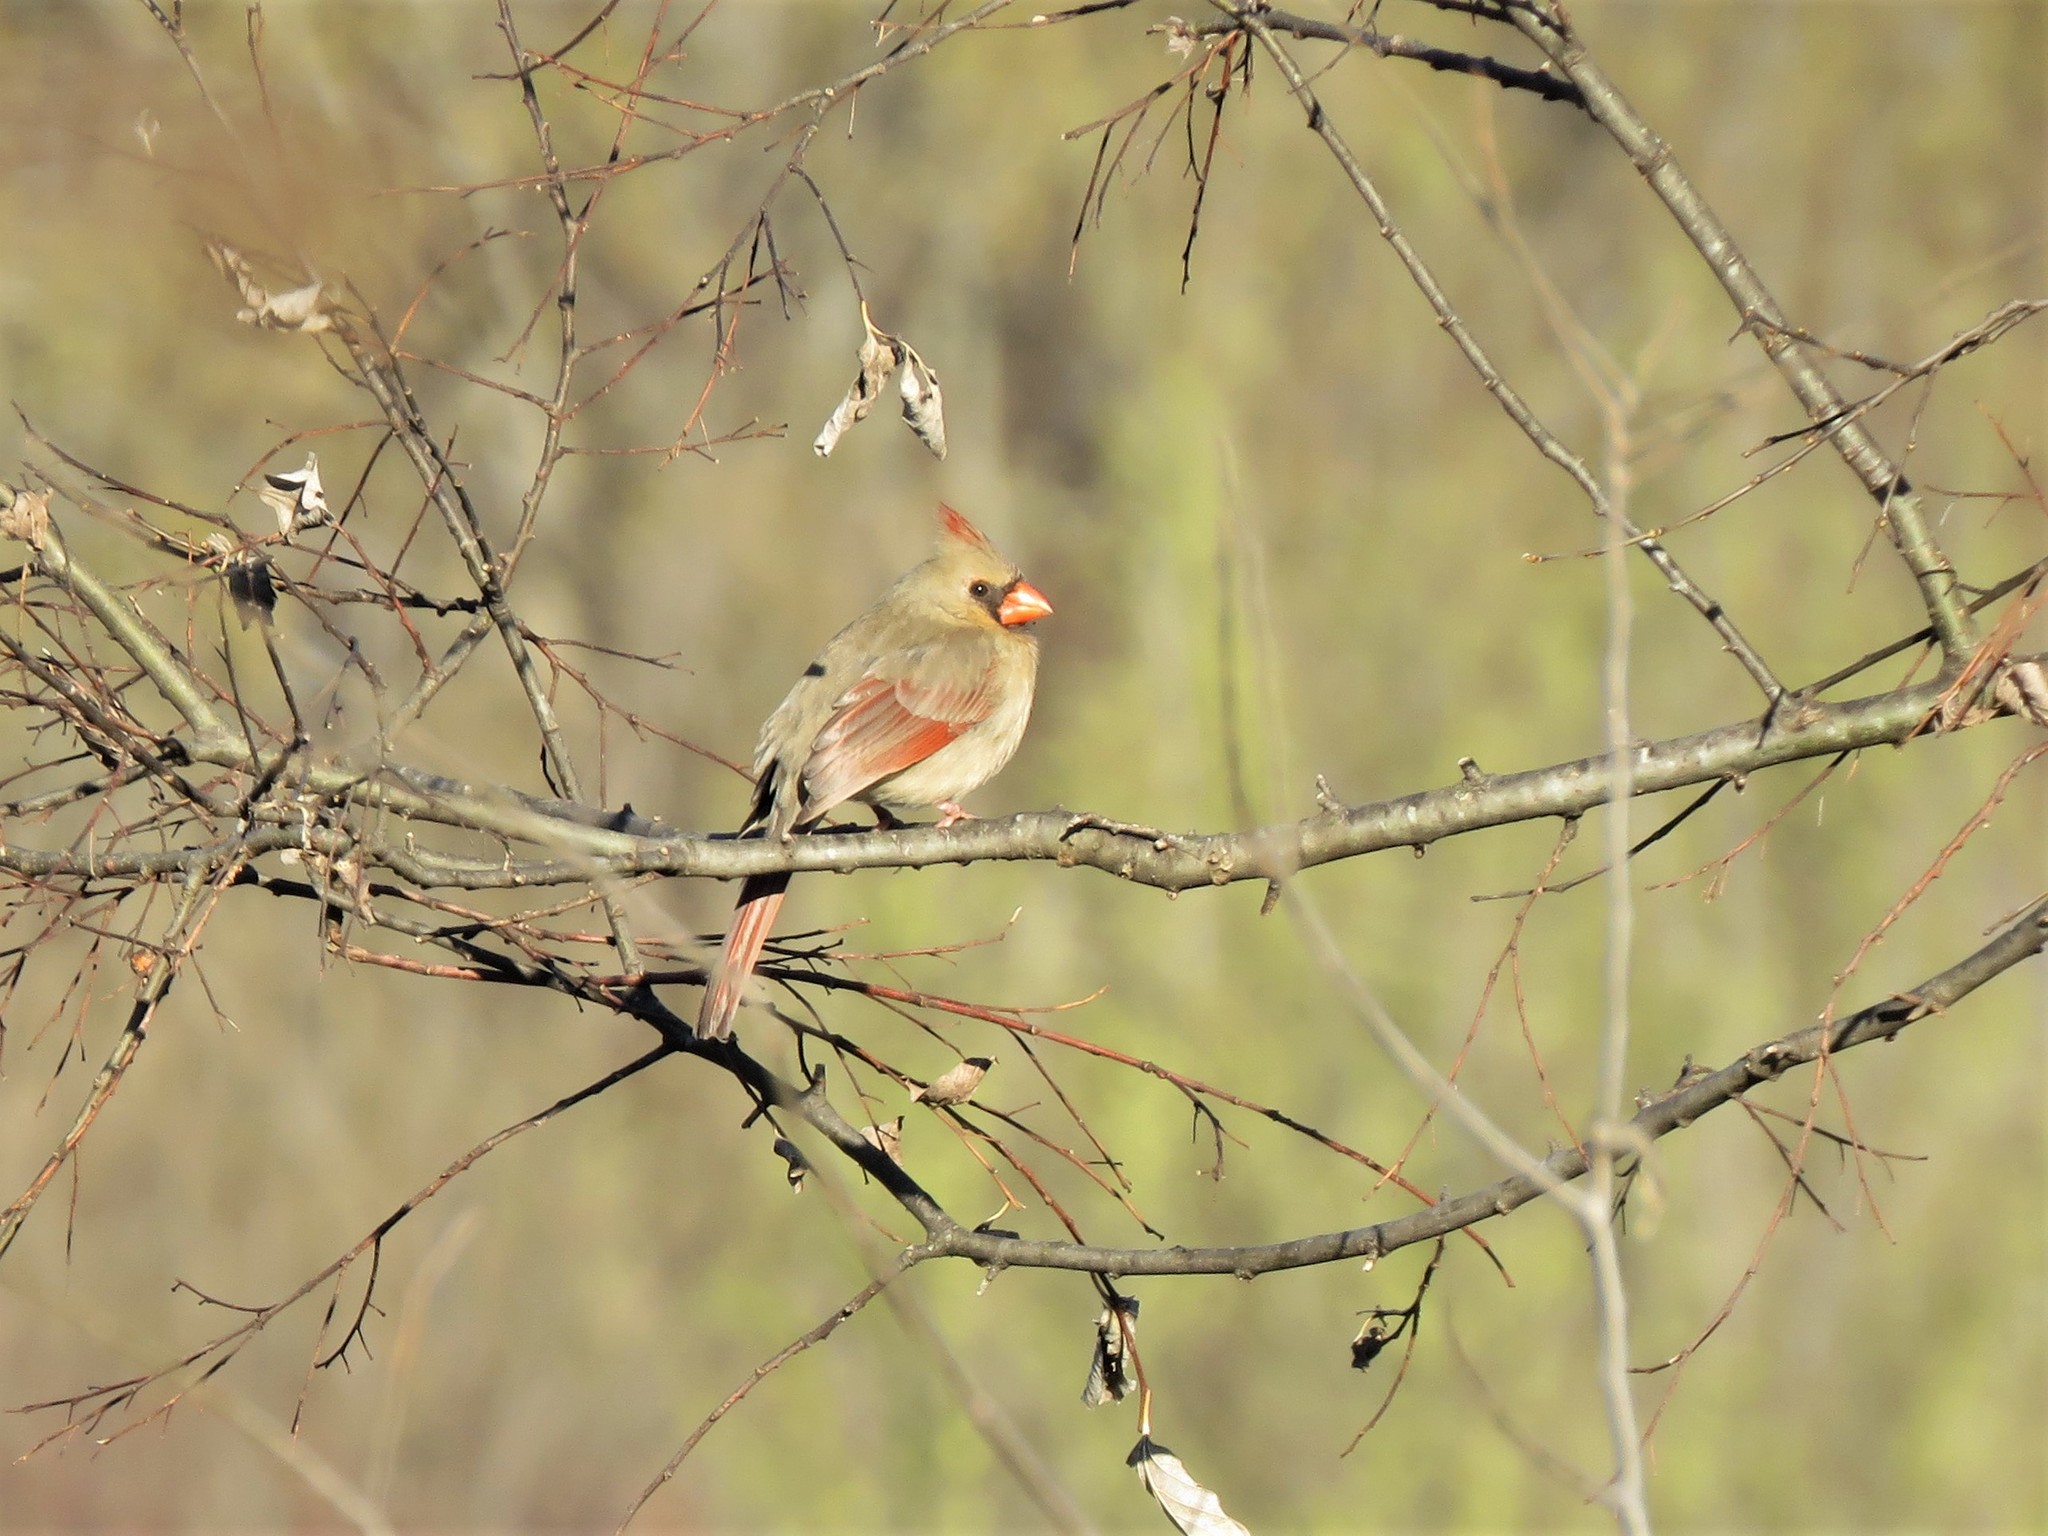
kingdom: Animalia
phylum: Chordata
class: Aves
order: Passeriformes
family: Cardinalidae
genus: Cardinalis
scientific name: Cardinalis cardinalis
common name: Northern cardinal
